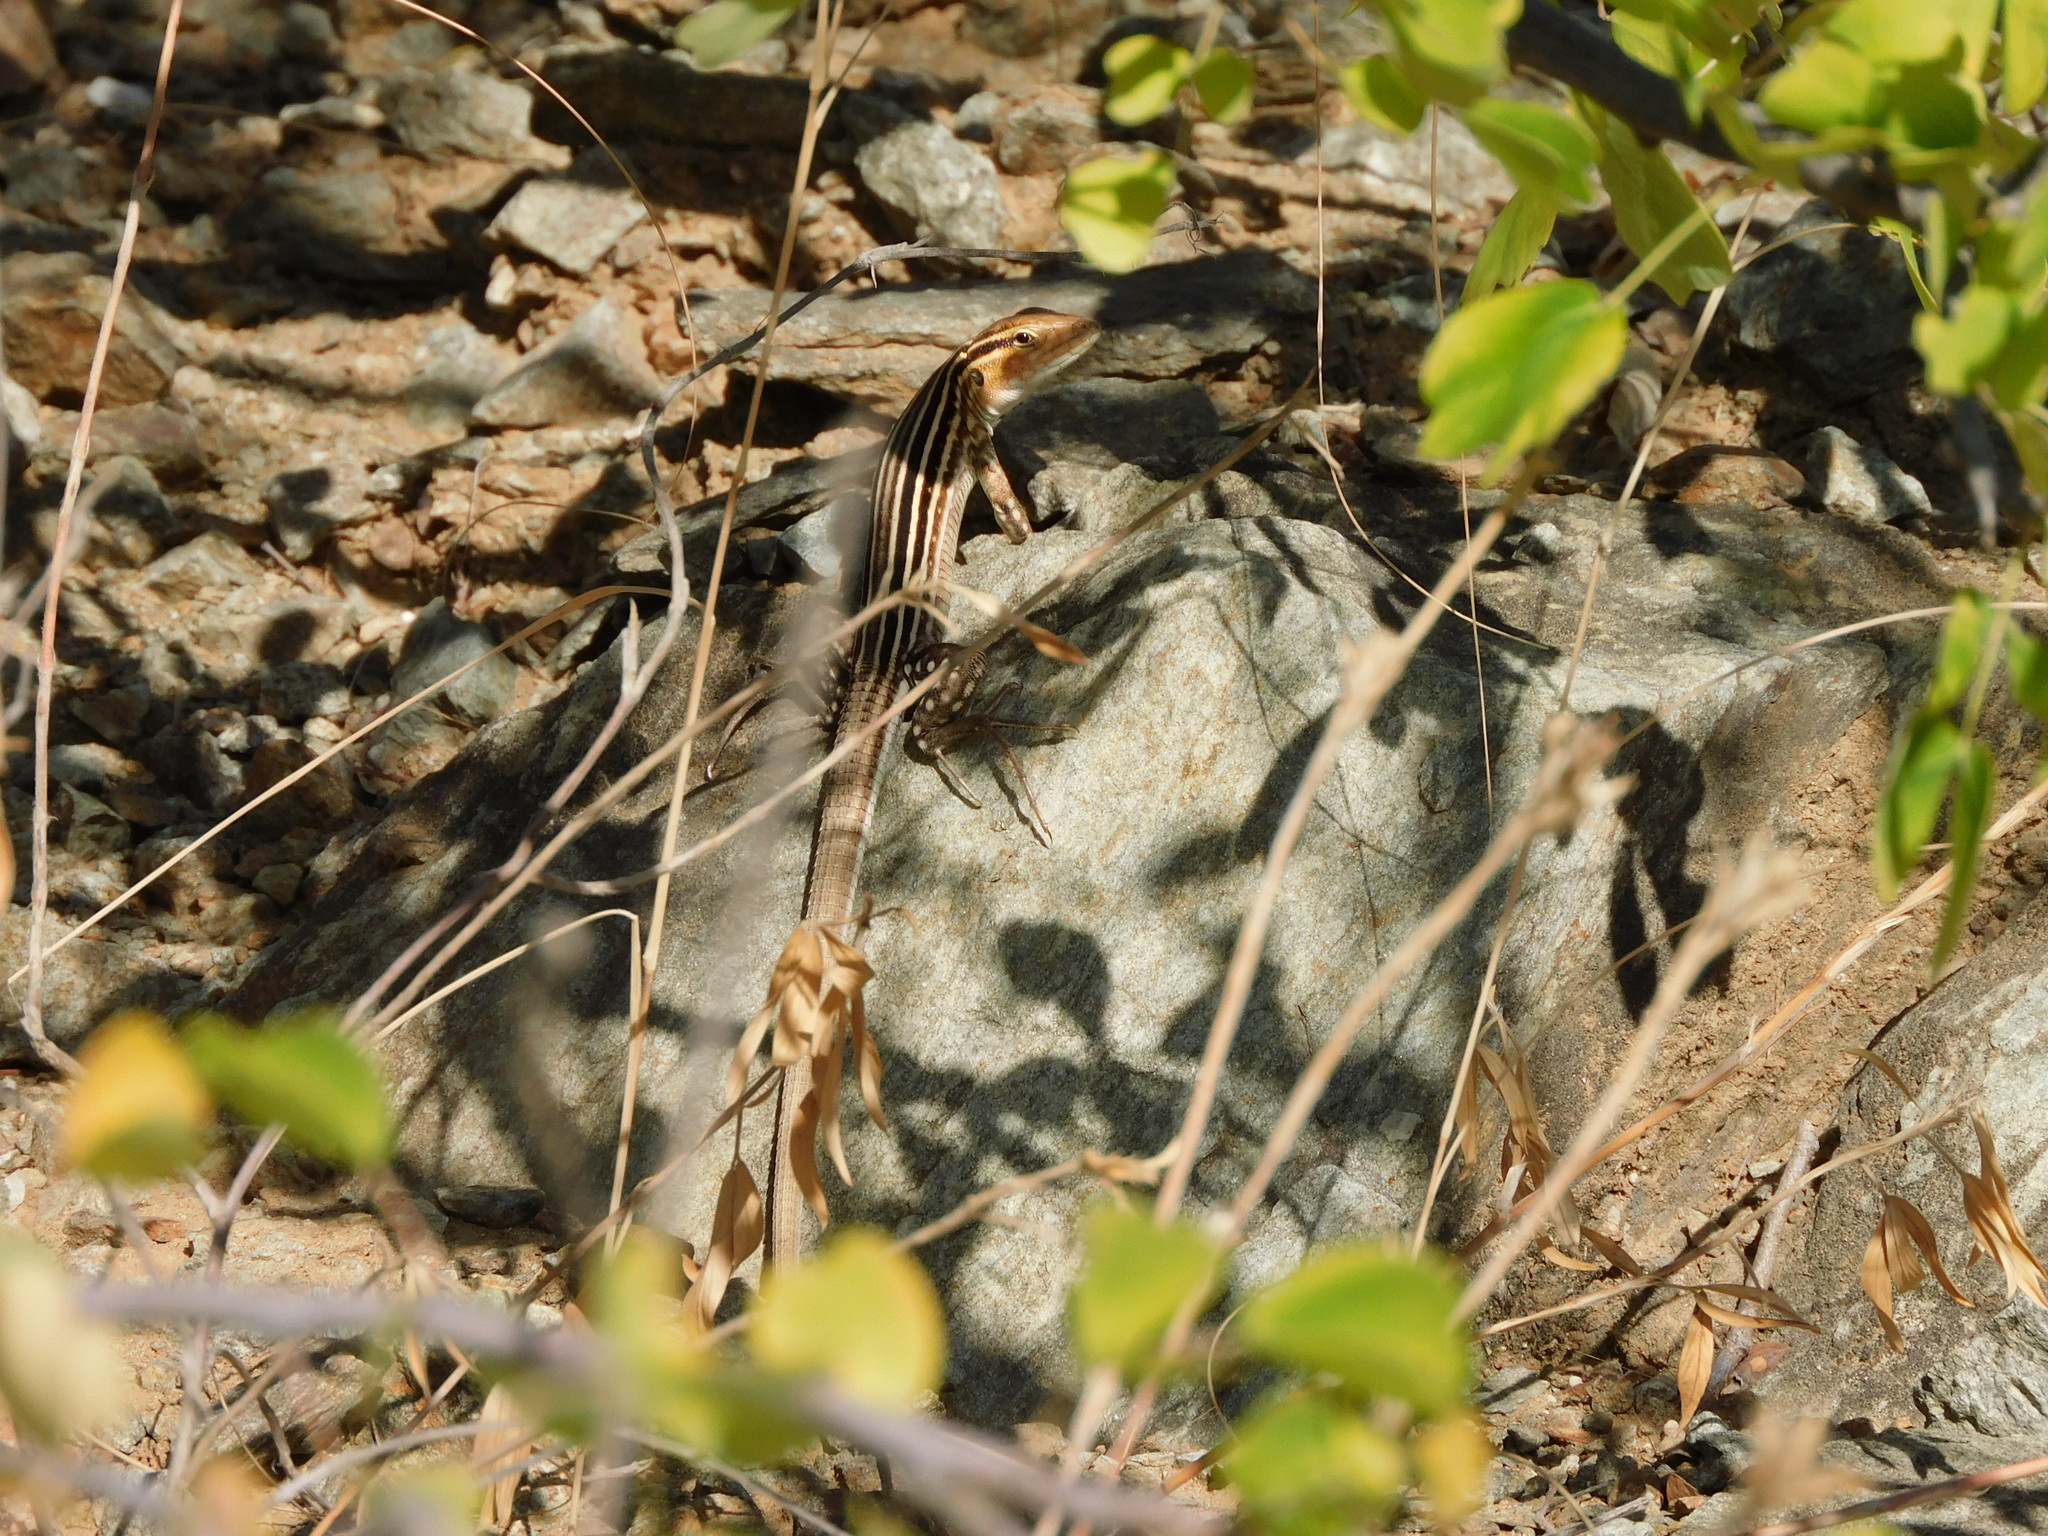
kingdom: Animalia
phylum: Chordata
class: Squamata
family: Teiidae
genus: Cnemidophorus
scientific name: Cnemidophorus gaigei
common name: Gaige’s rainbow lizard
